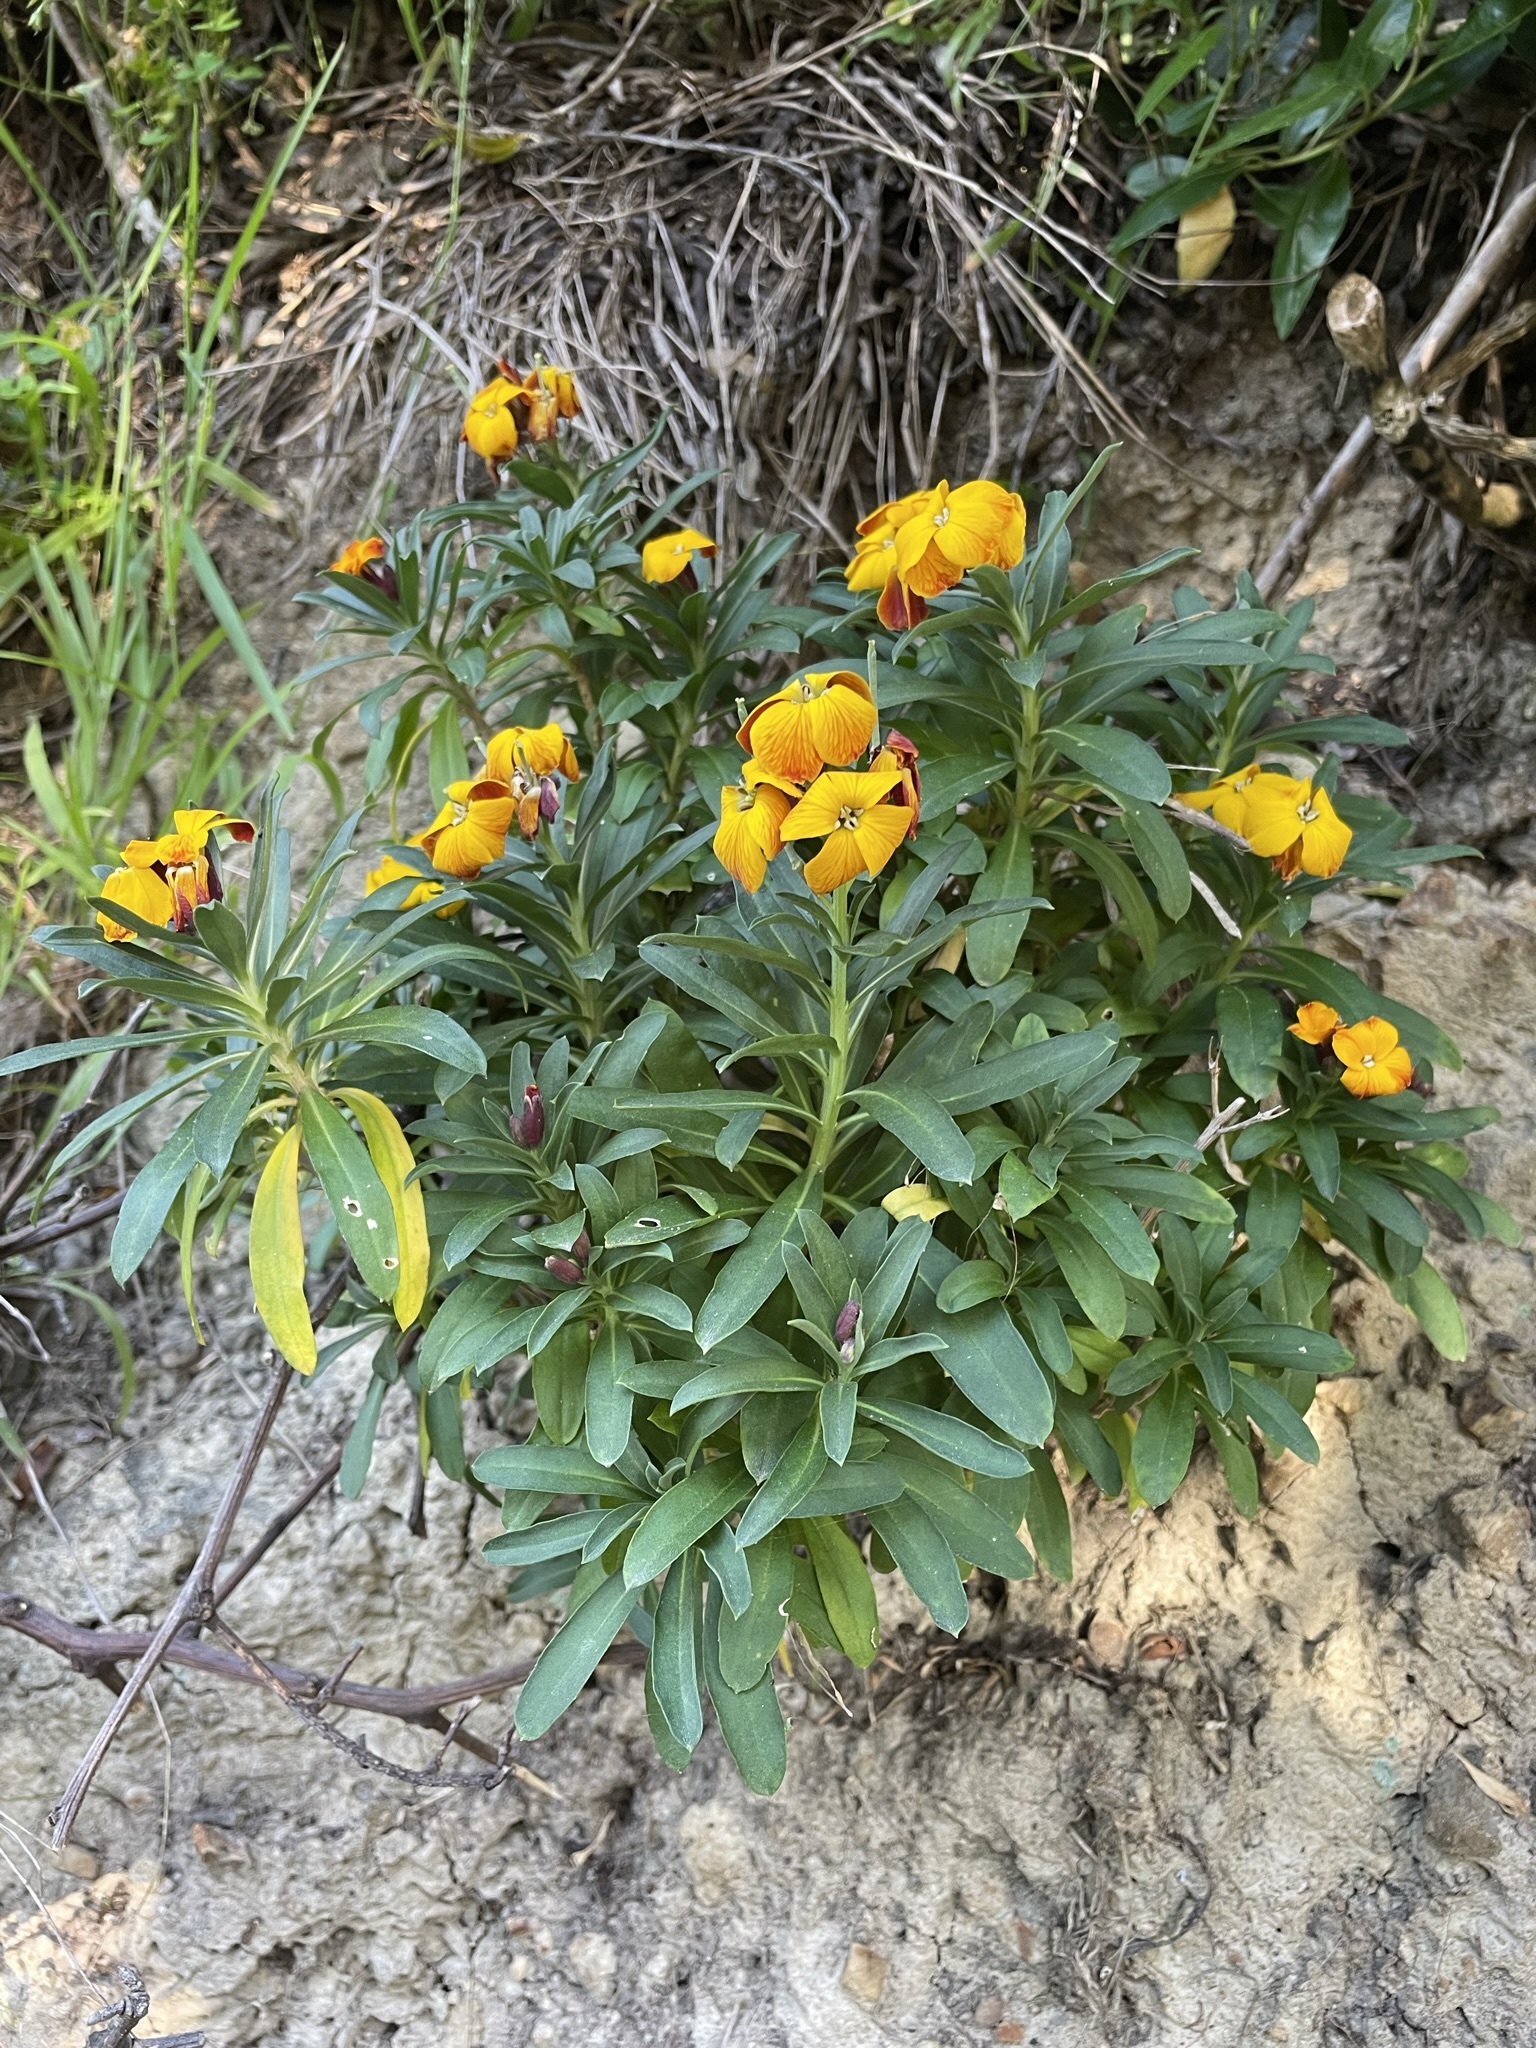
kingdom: Plantae
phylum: Tracheophyta
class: Magnoliopsida
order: Brassicales
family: Brassicaceae
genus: Erysimum
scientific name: Erysimum cheiri
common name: Wallflower
